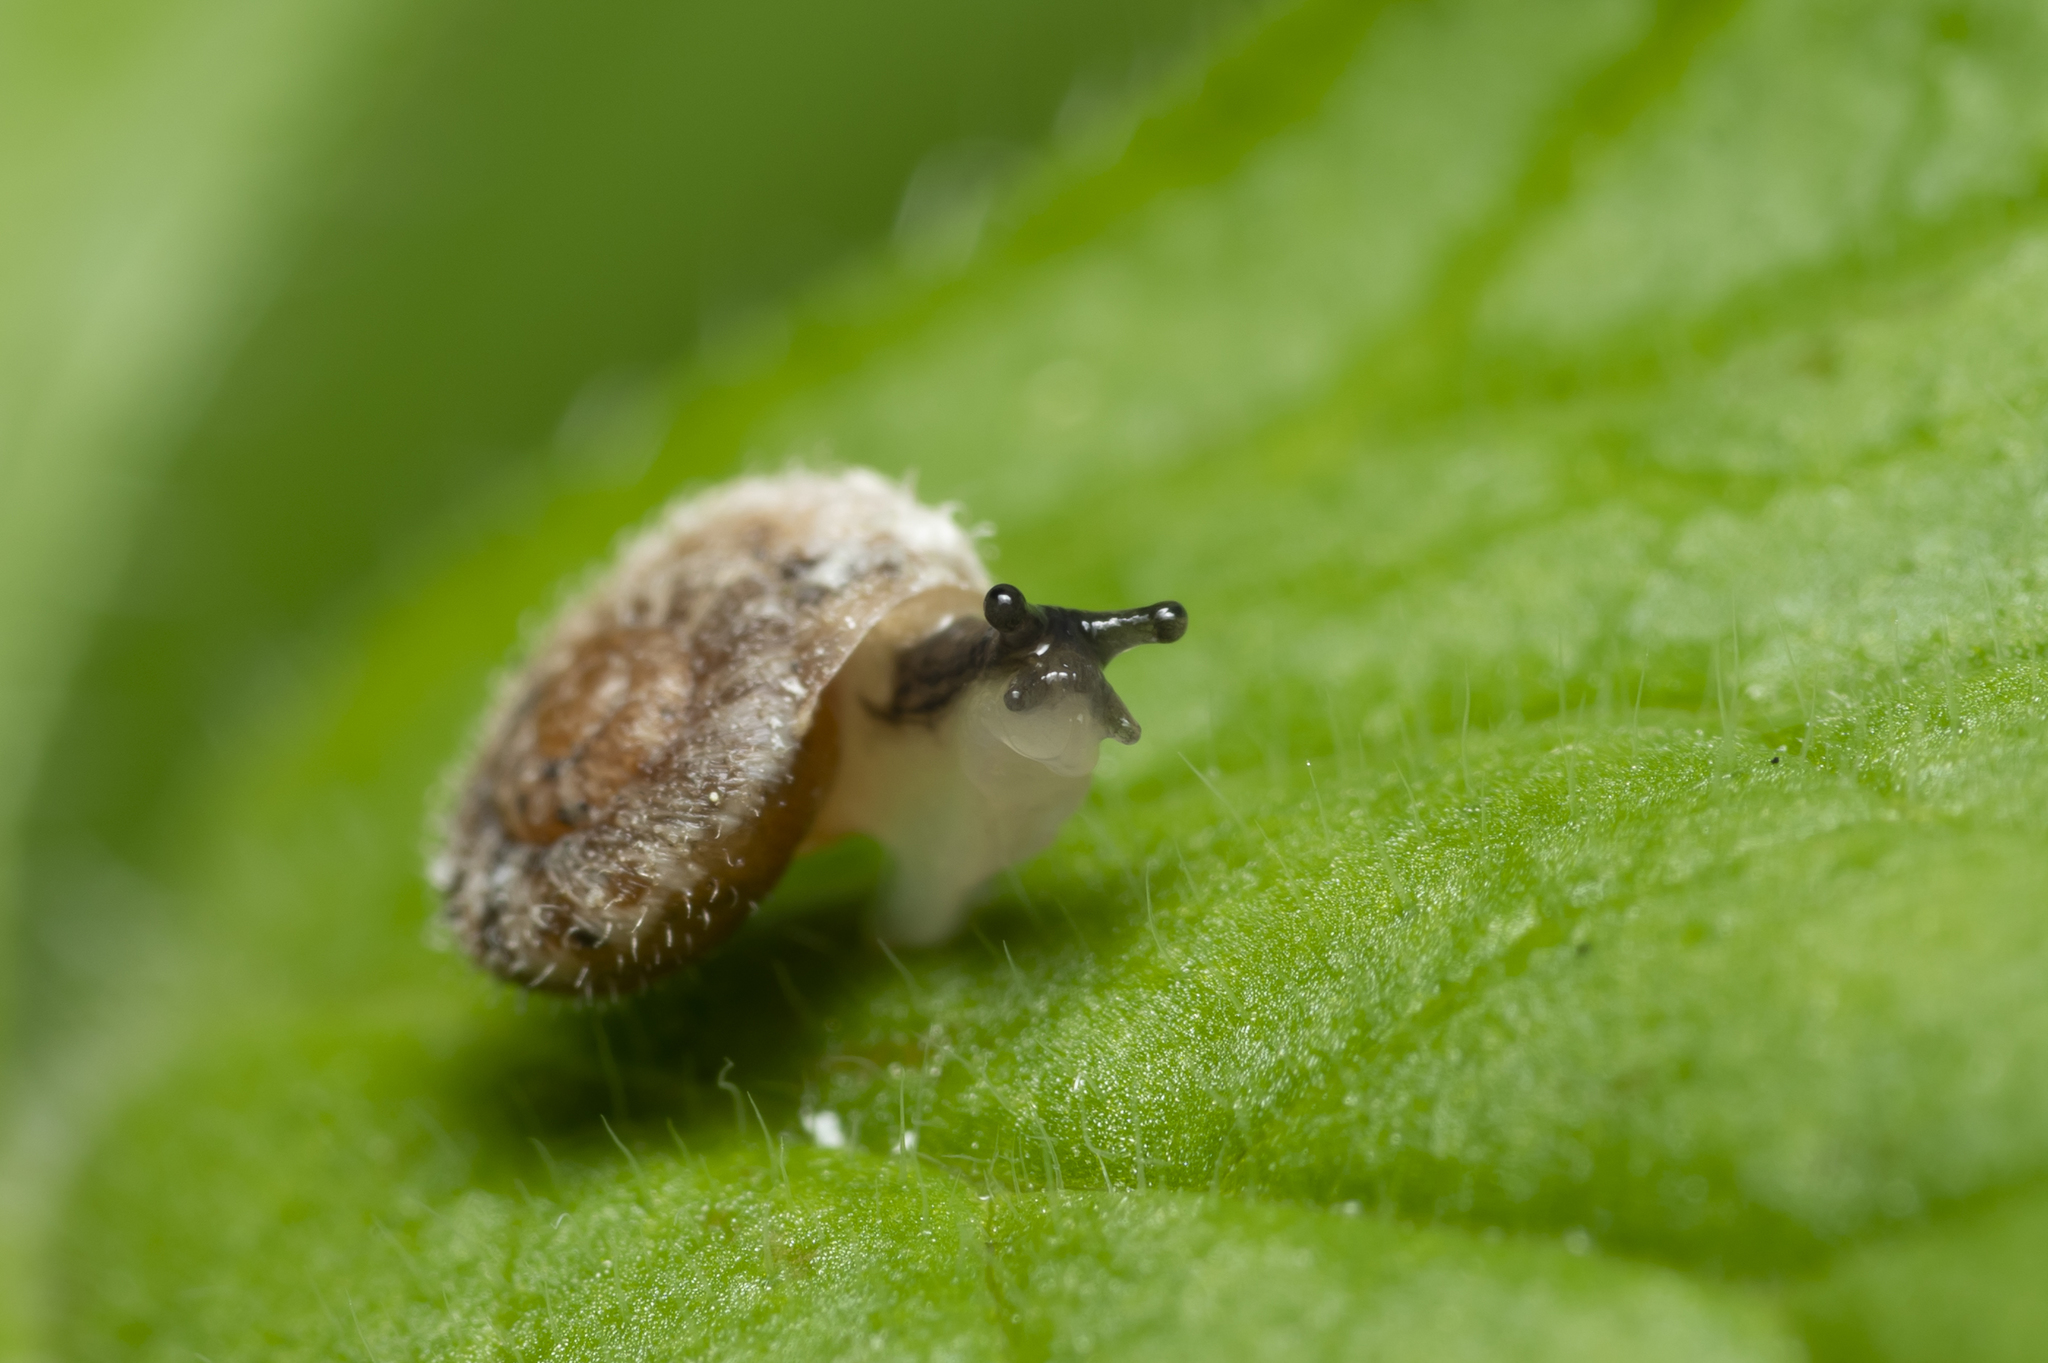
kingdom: Animalia
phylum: Mollusca
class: Gastropoda
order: Stylommatophora
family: Geomitridae
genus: Xerotricha
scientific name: Xerotricha conspurcata
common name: Snail
